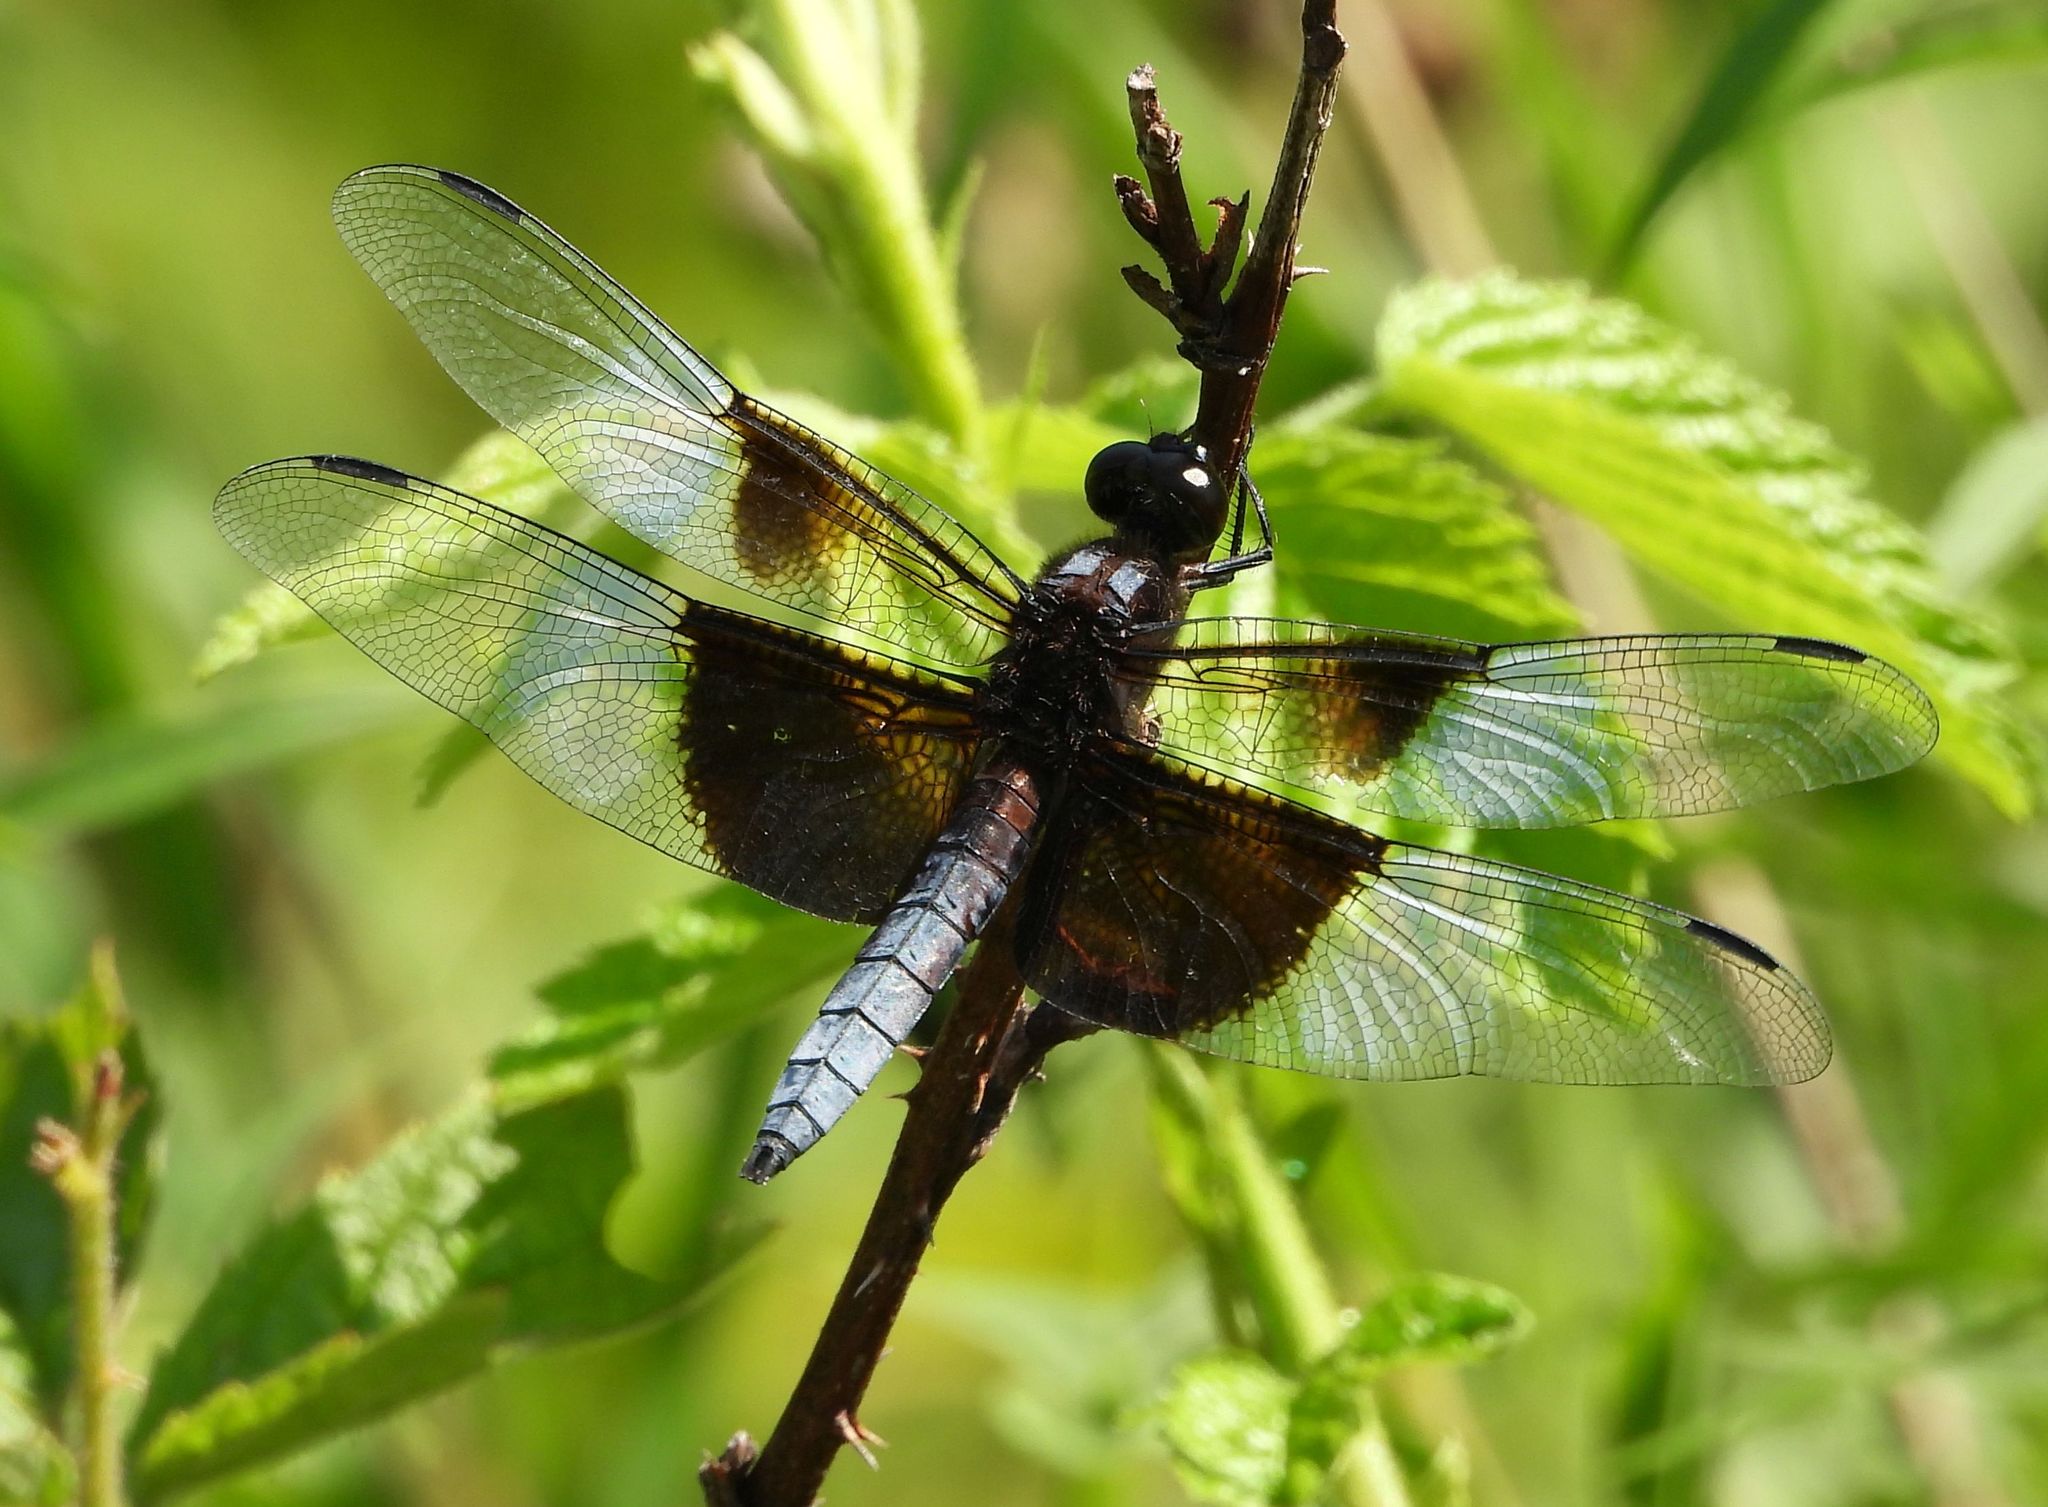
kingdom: Animalia
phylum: Arthropoda
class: Insecta
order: Odonata
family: Libellulidae
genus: Libellula
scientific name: Libellula luctuosa
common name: Widow skimmer
